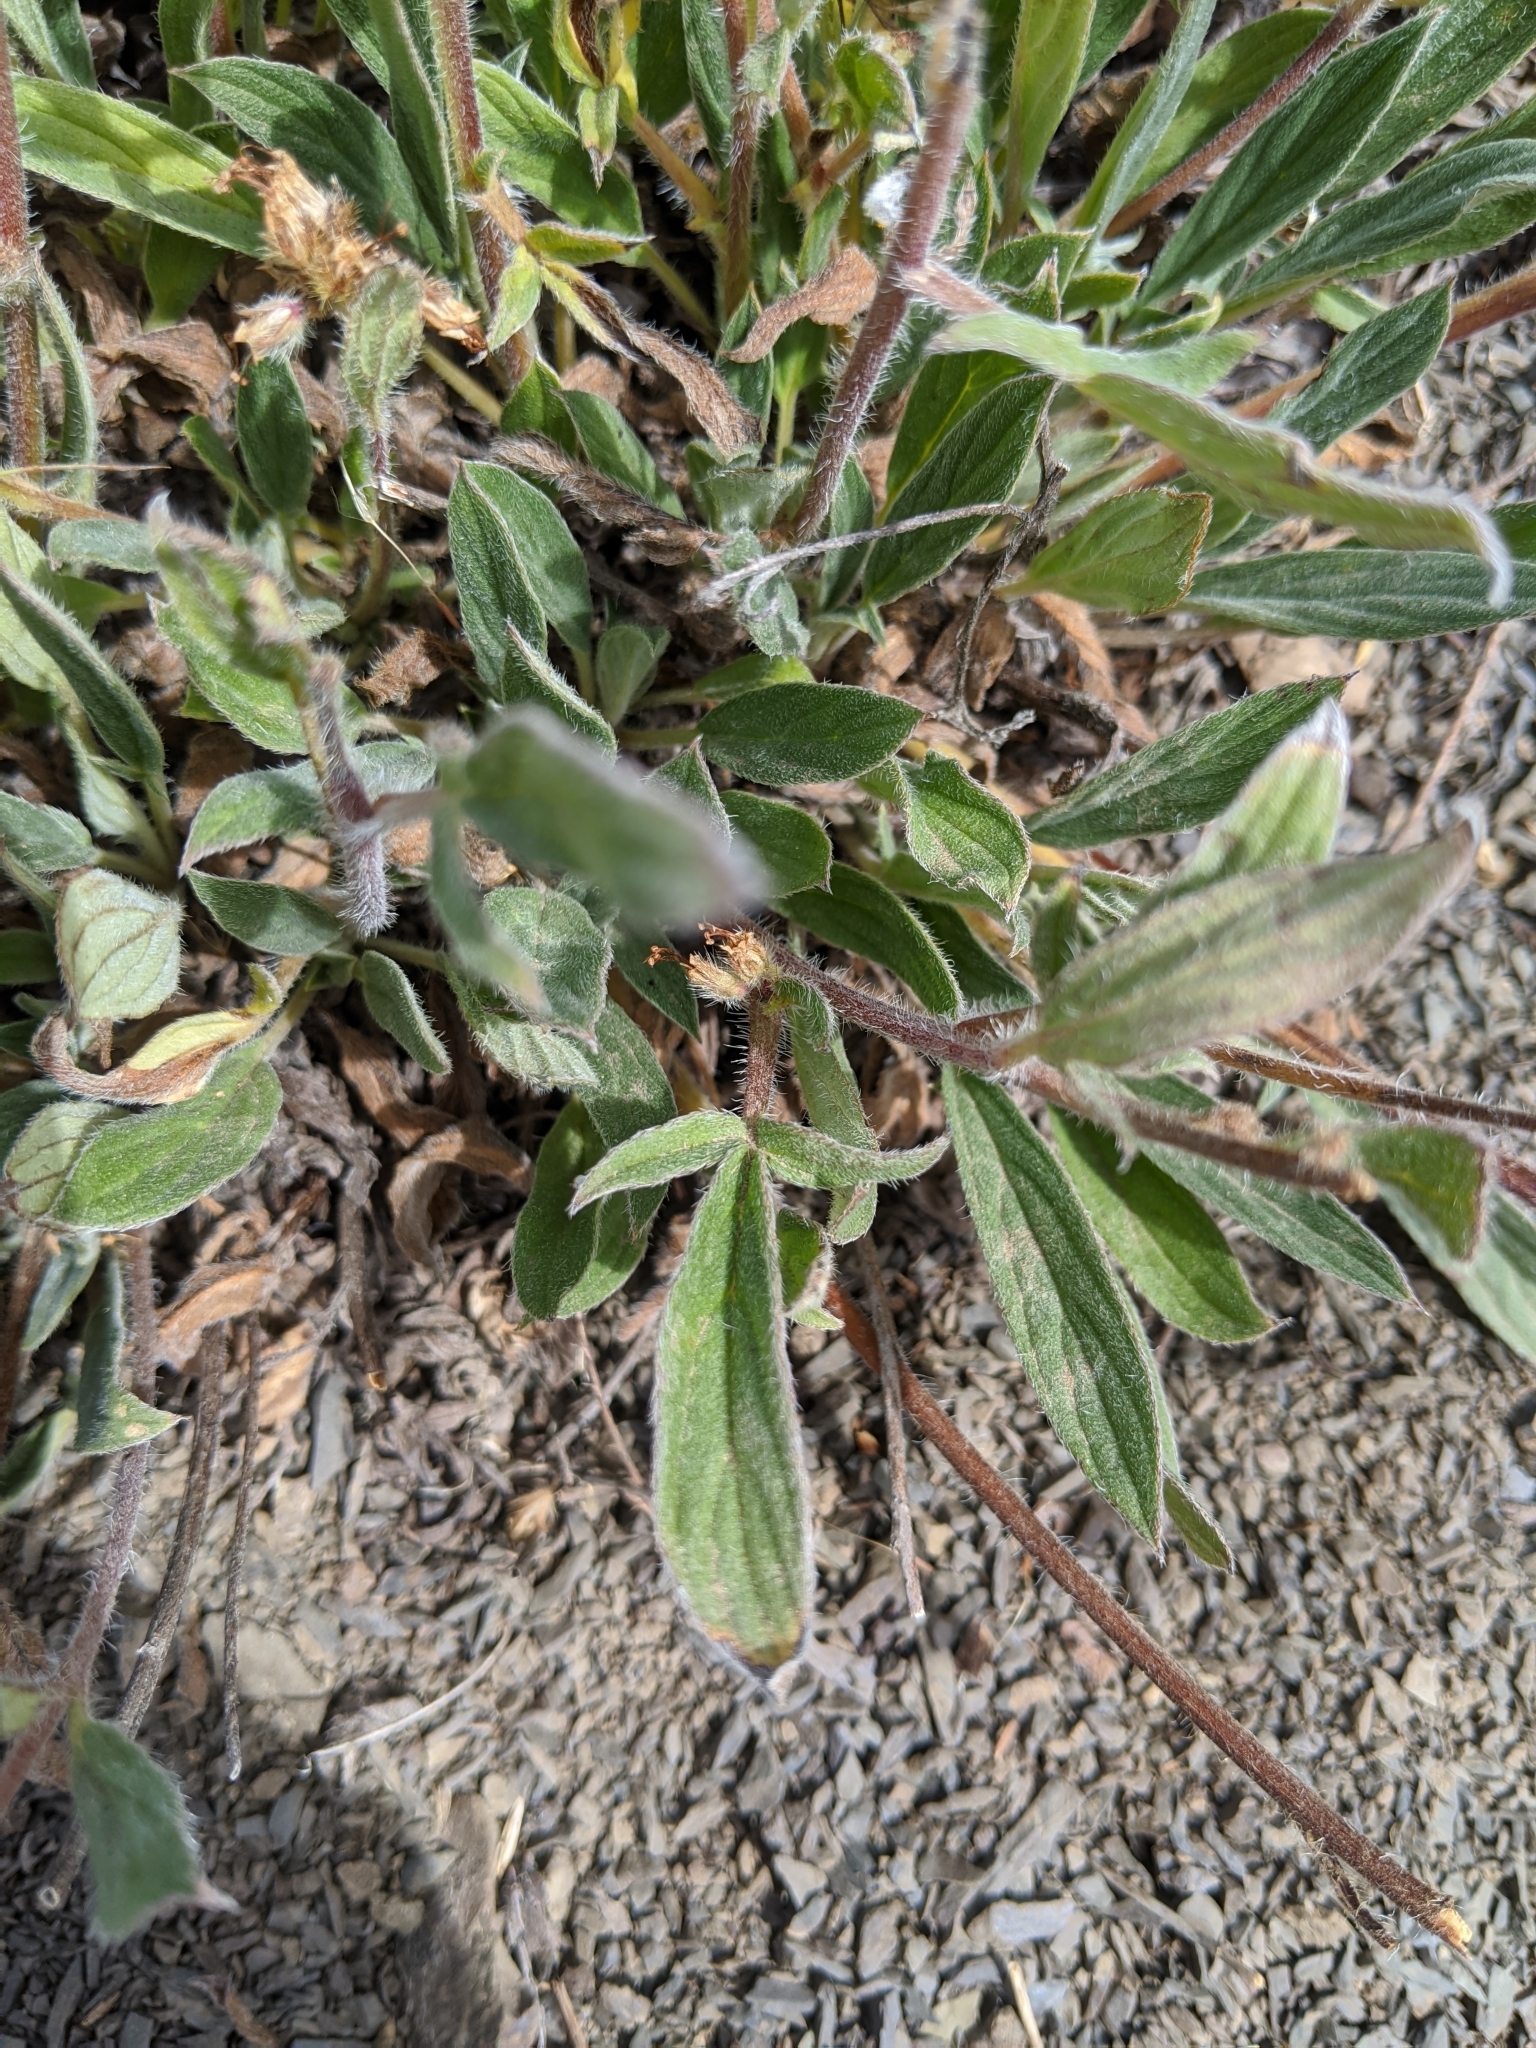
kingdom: Plantae
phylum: Tracheophyta
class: Magnoliopsida
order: Boraginales
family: Hydrophyllaceae
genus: Phacelia
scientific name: Phacelia hastata
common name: Silver-leaved phacelia
